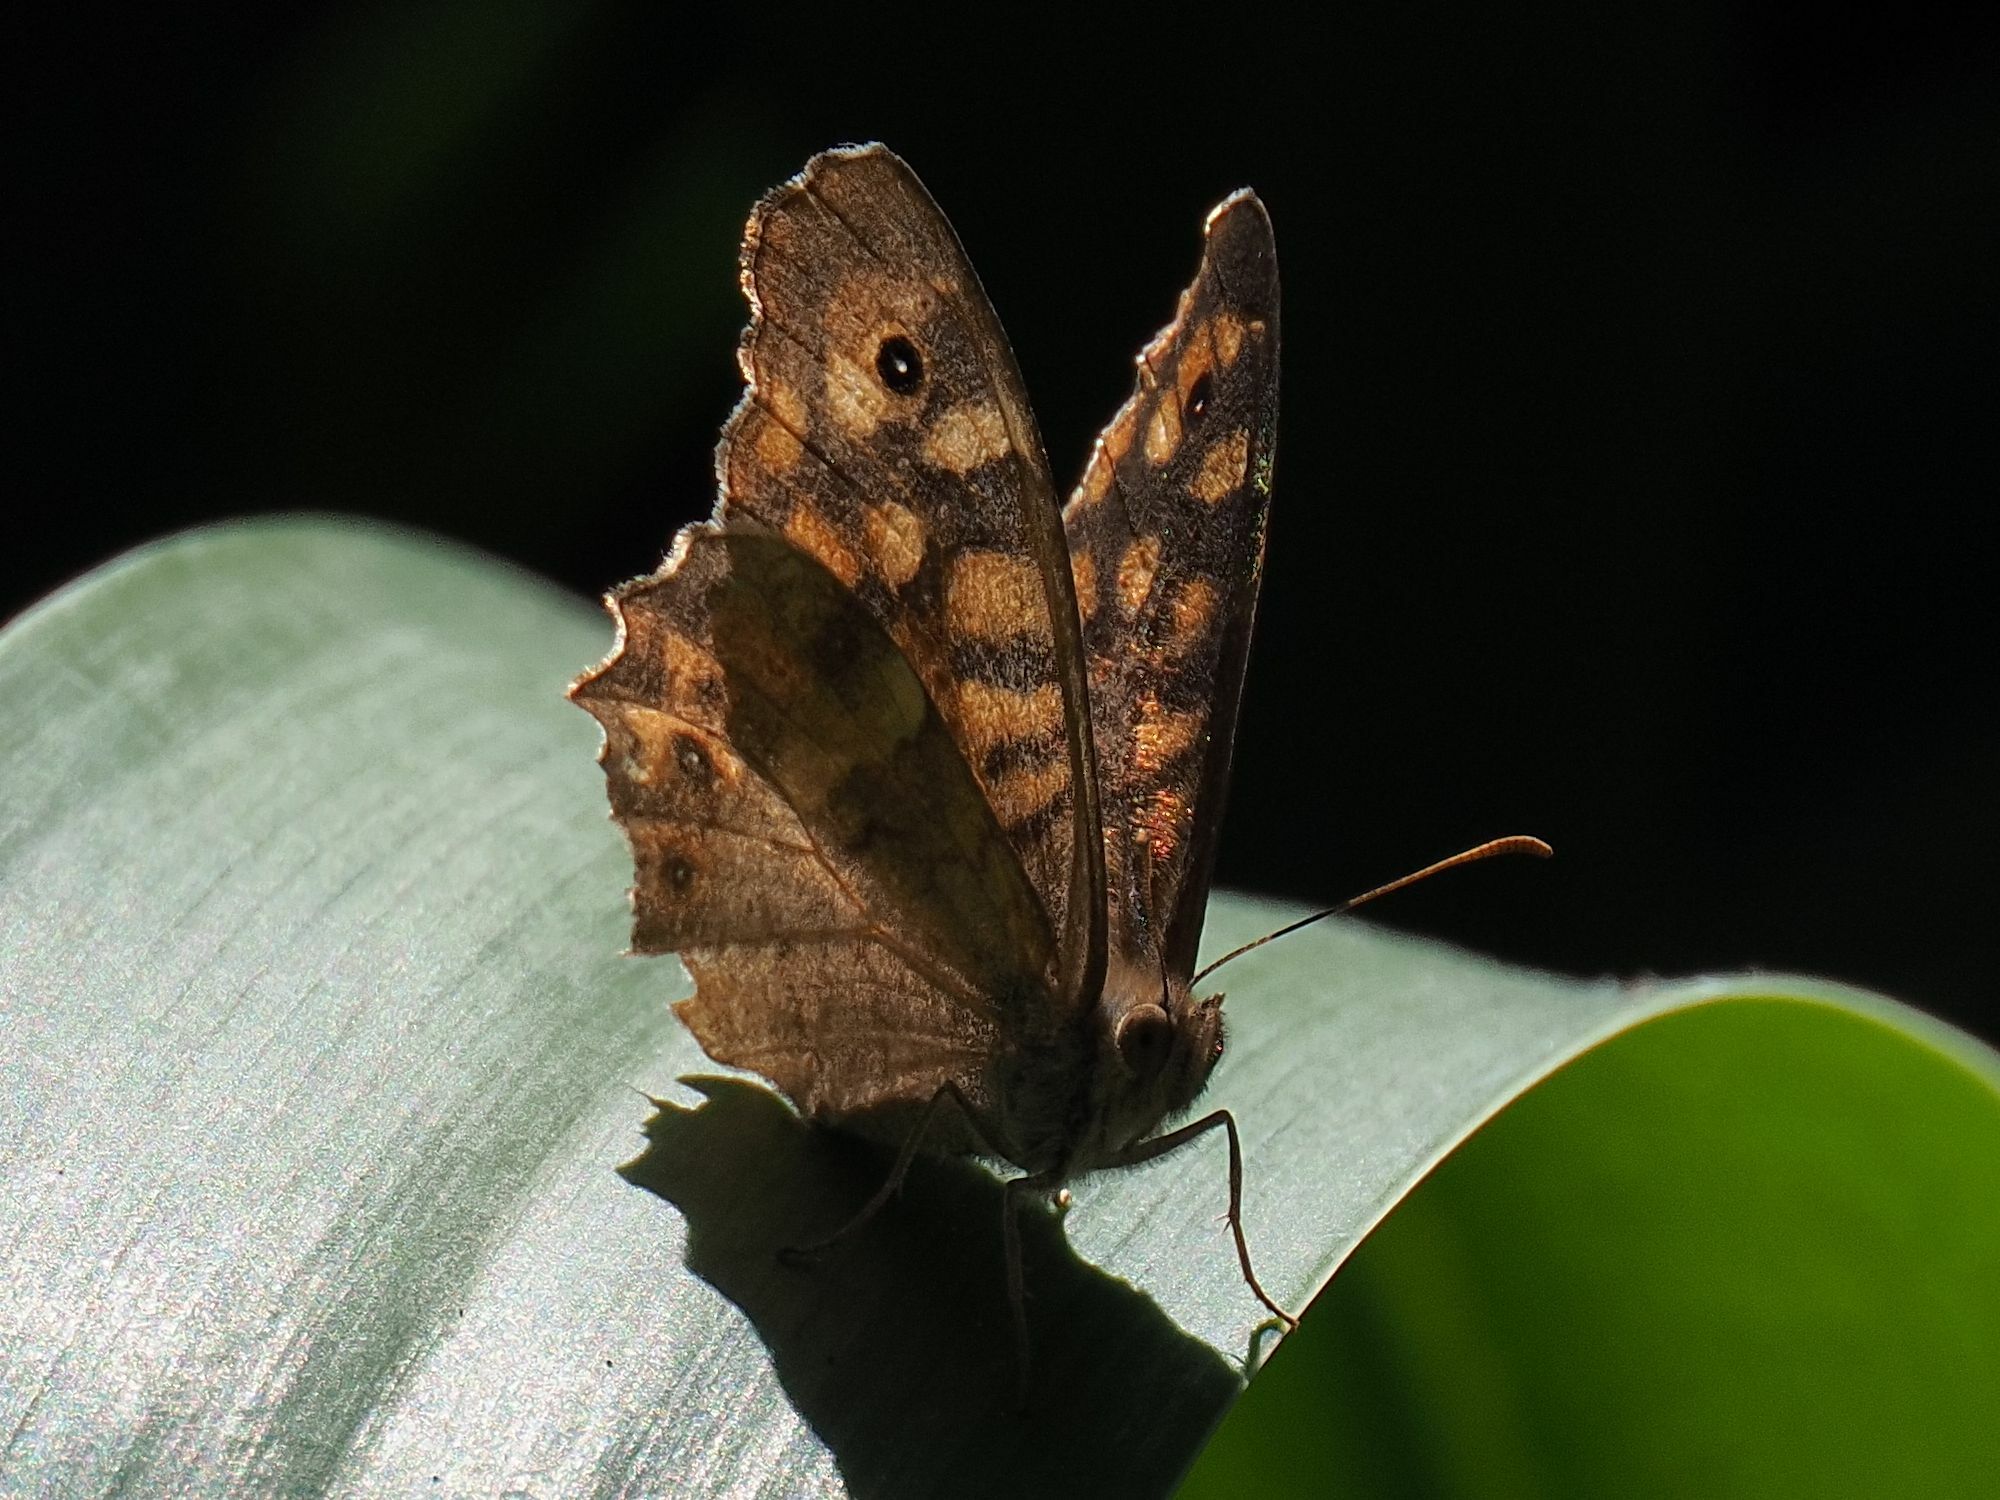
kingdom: Animalia
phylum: Arthropoda
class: Insecta
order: Lepidoptera
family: Nymphalidae
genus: Pararge
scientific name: Pararge aegeria
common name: Speckled wood
